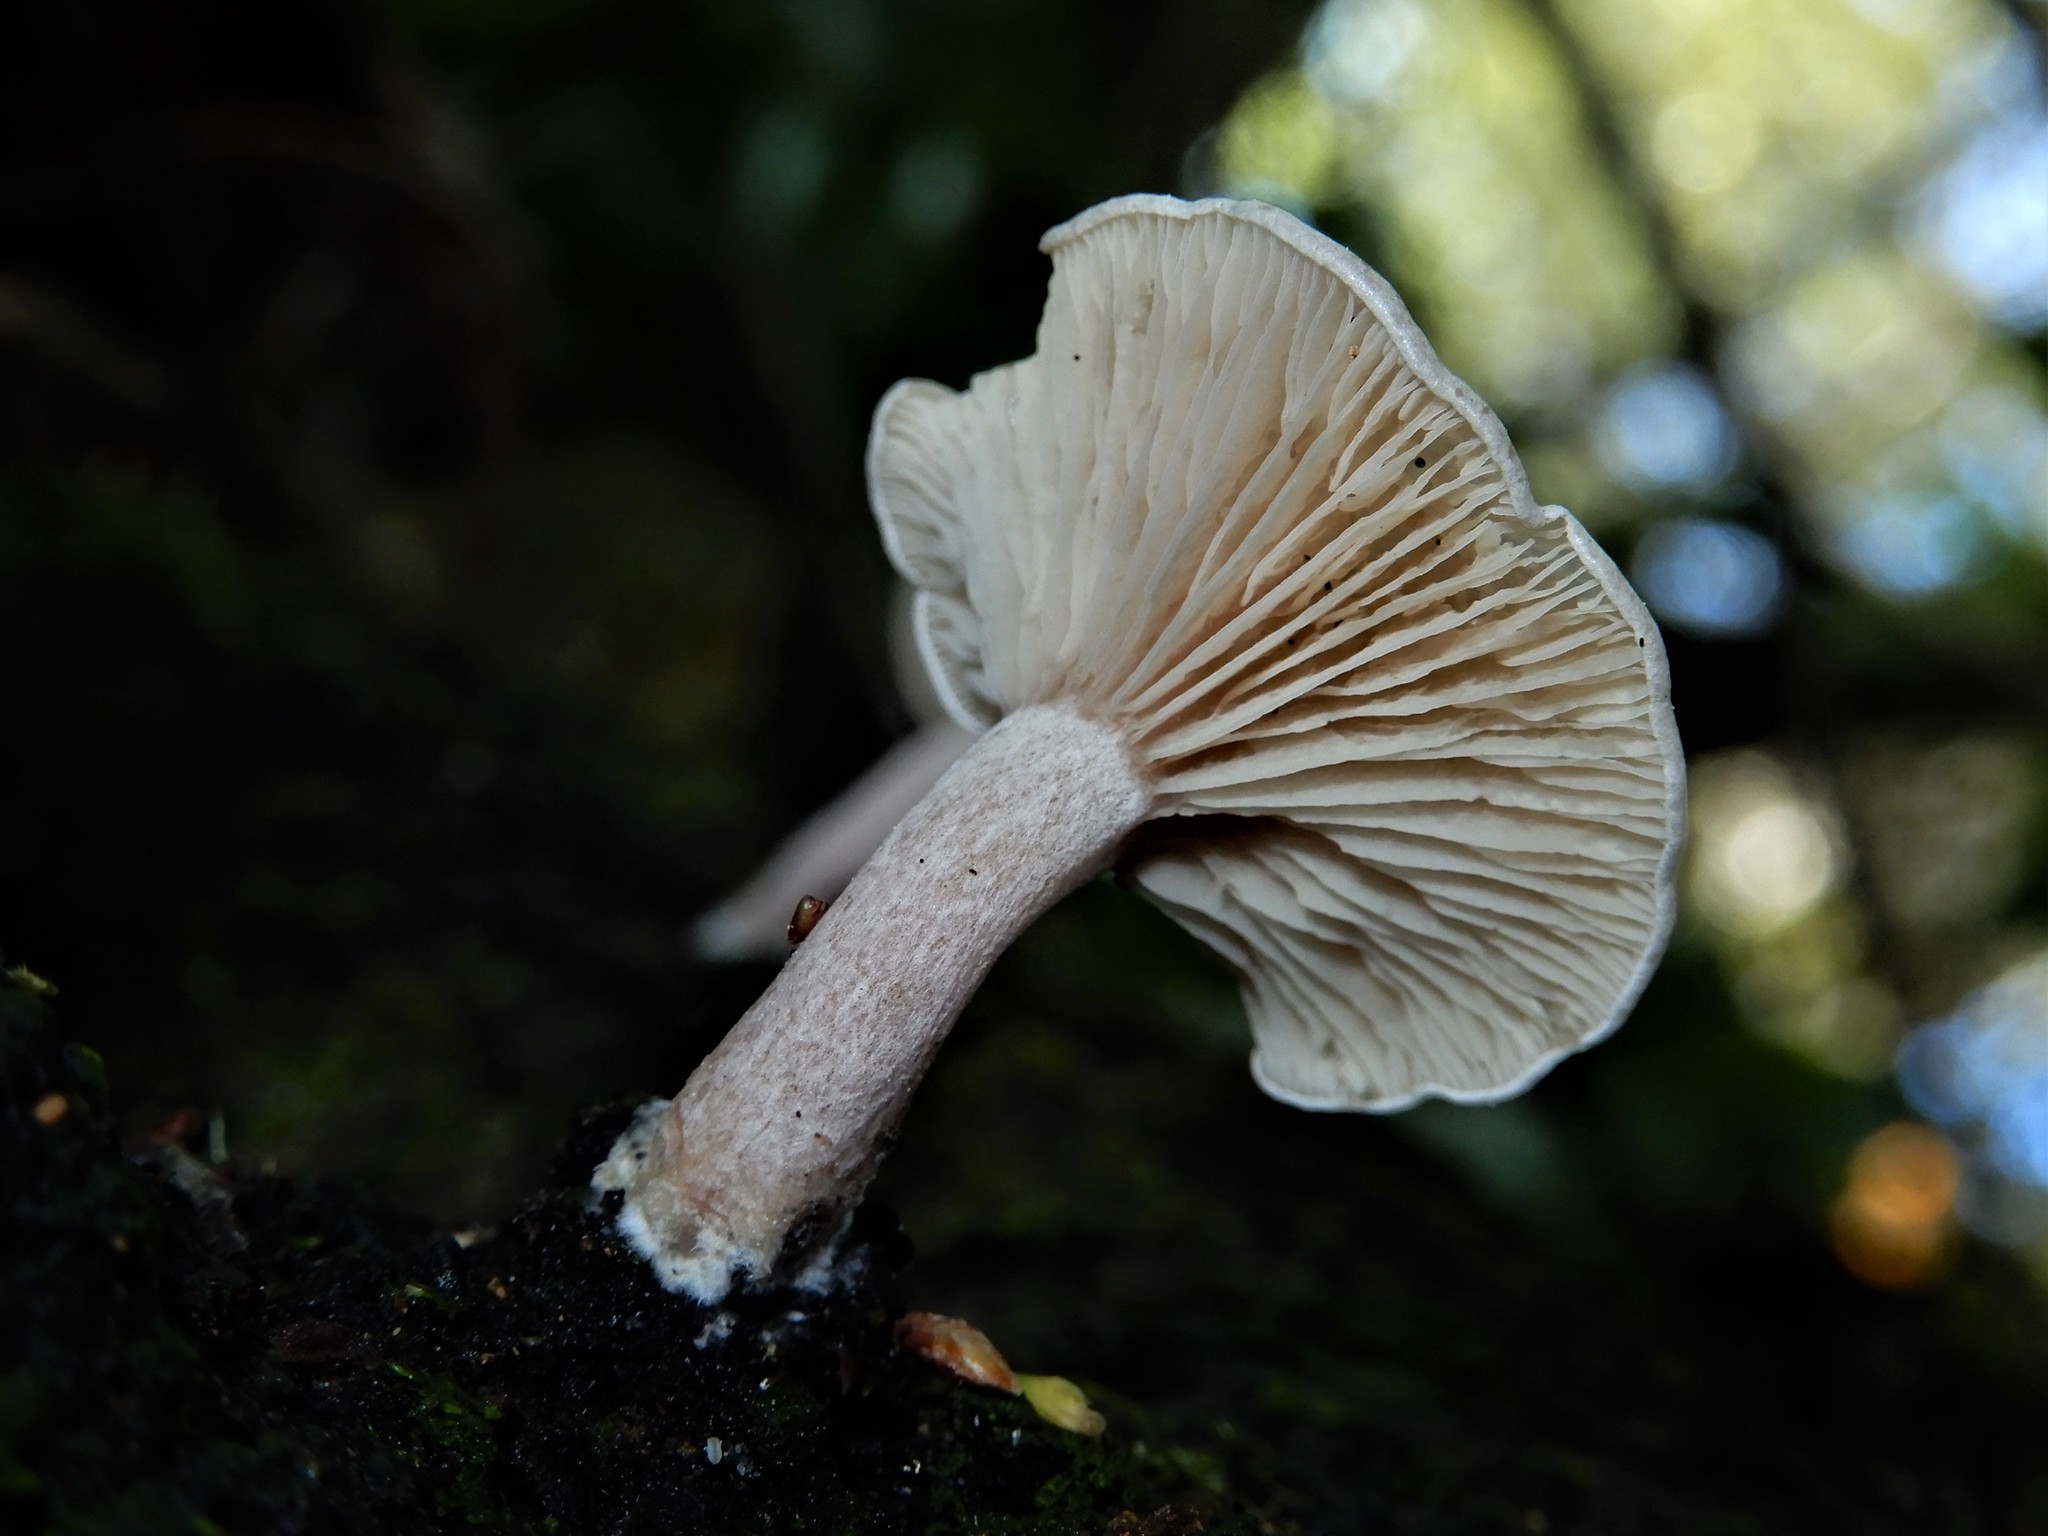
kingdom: Fungi
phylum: Basidiomycota
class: Agaricomycetes
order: Agaricales
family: Tricholomataceae
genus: Clitocybe
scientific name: Clitocybe wellingtonensis
